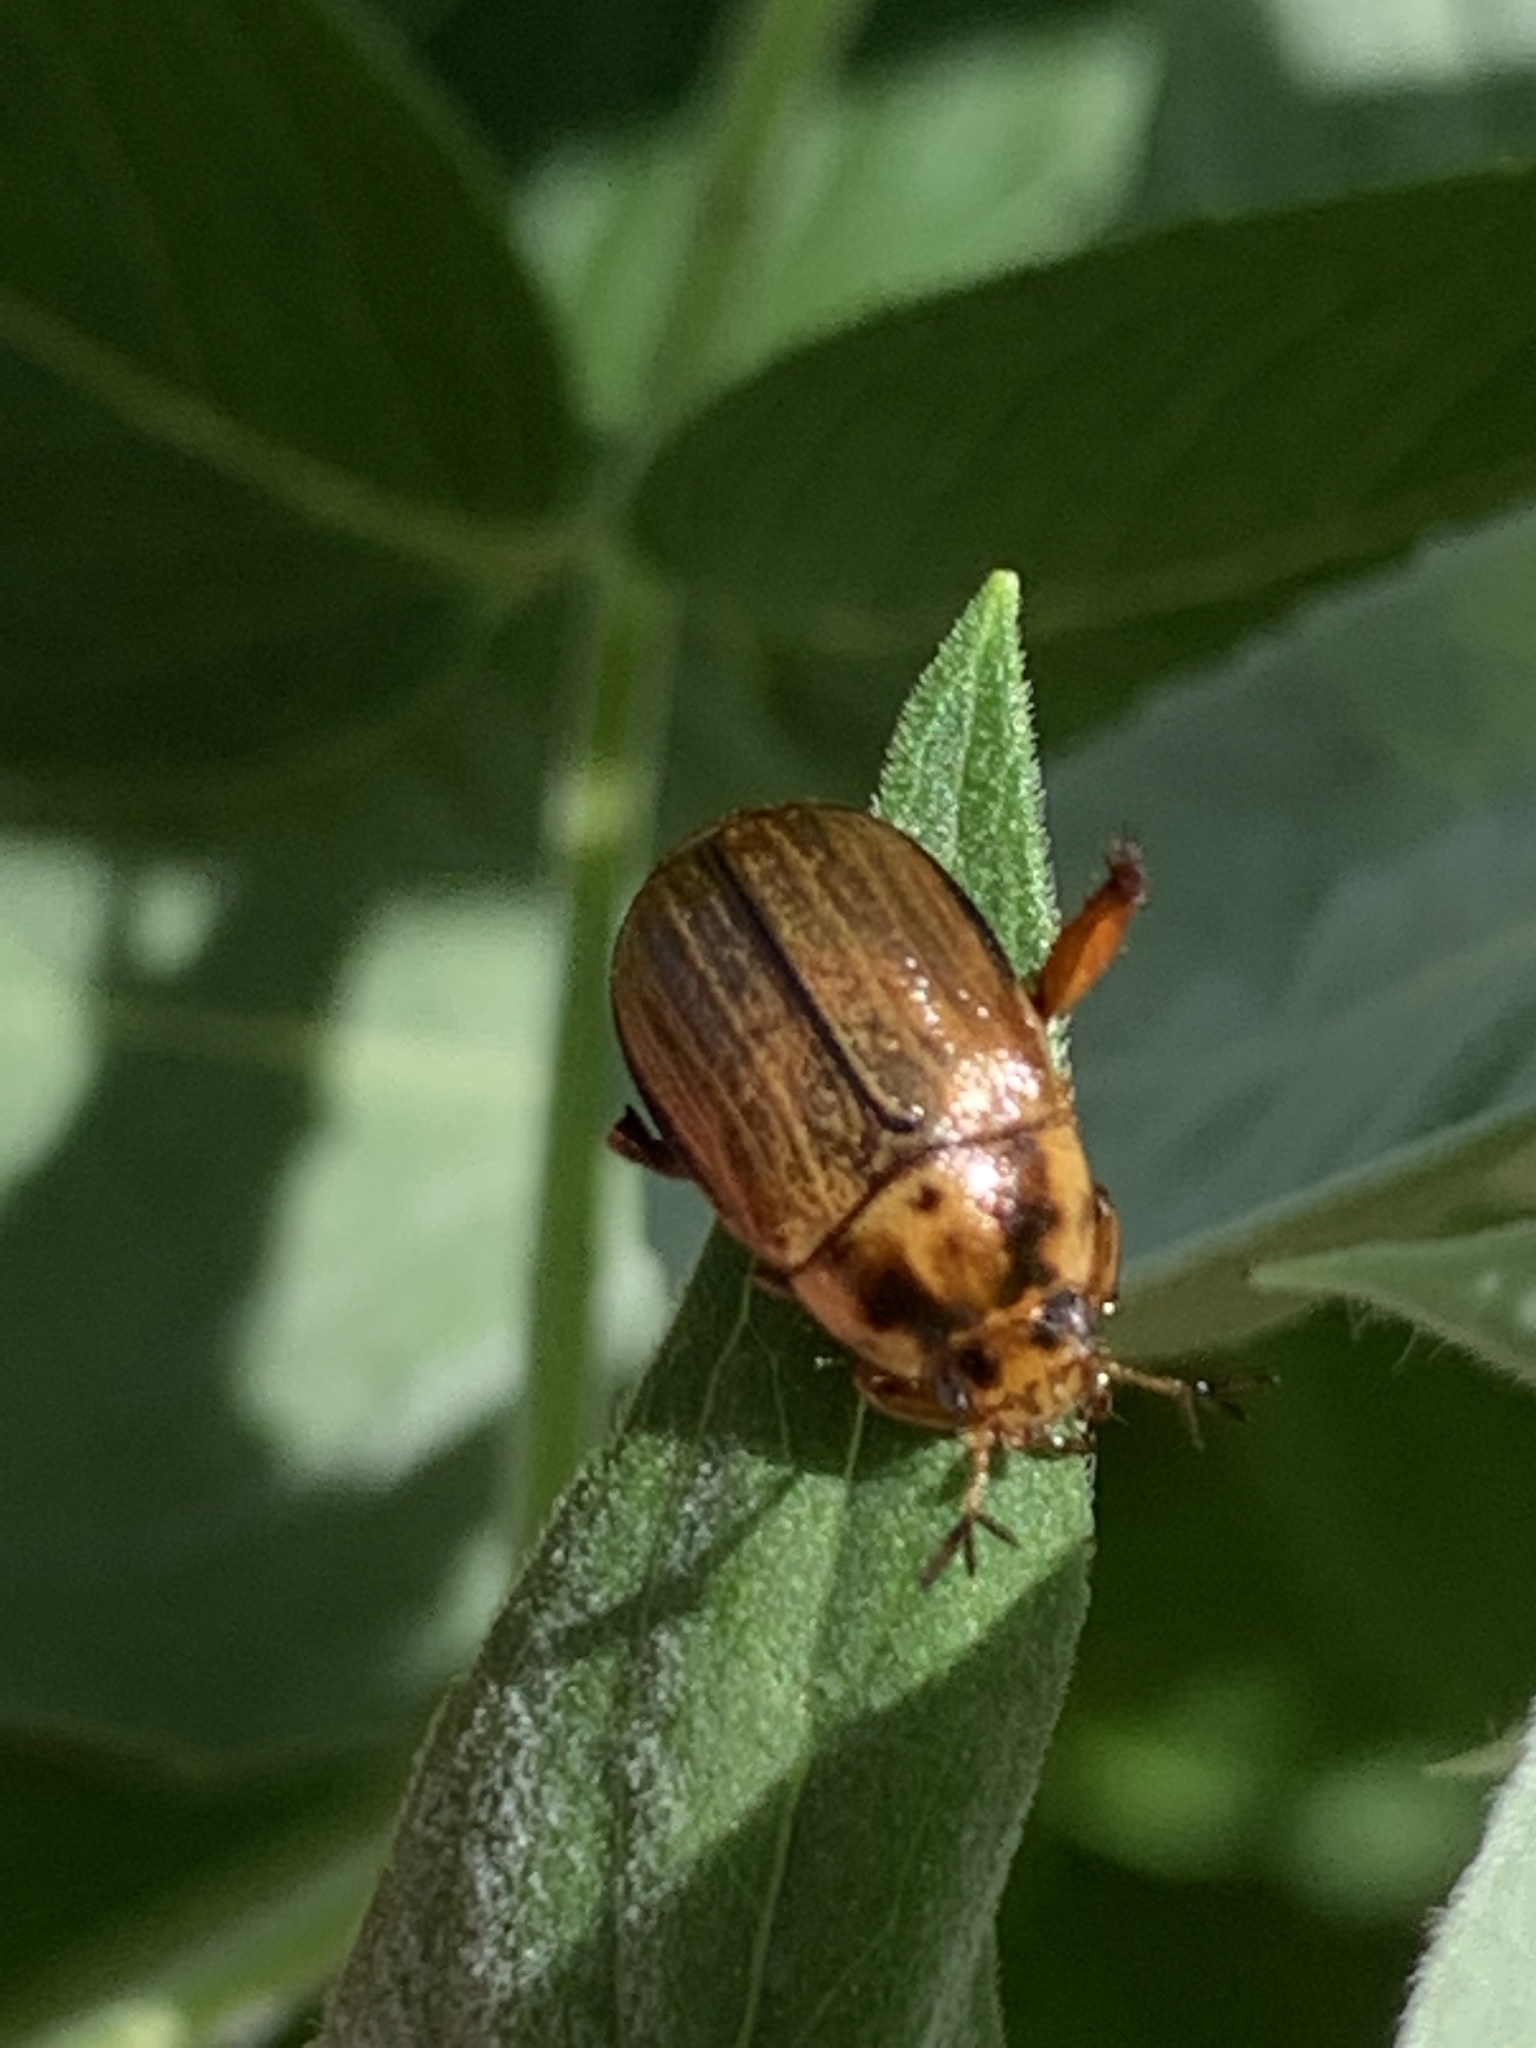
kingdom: Animalia
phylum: Arthropoda
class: Insecta
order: Coleoptera
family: Scarabaeidae
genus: Exomala
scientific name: Exomala orientalis
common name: Oriental beetle
